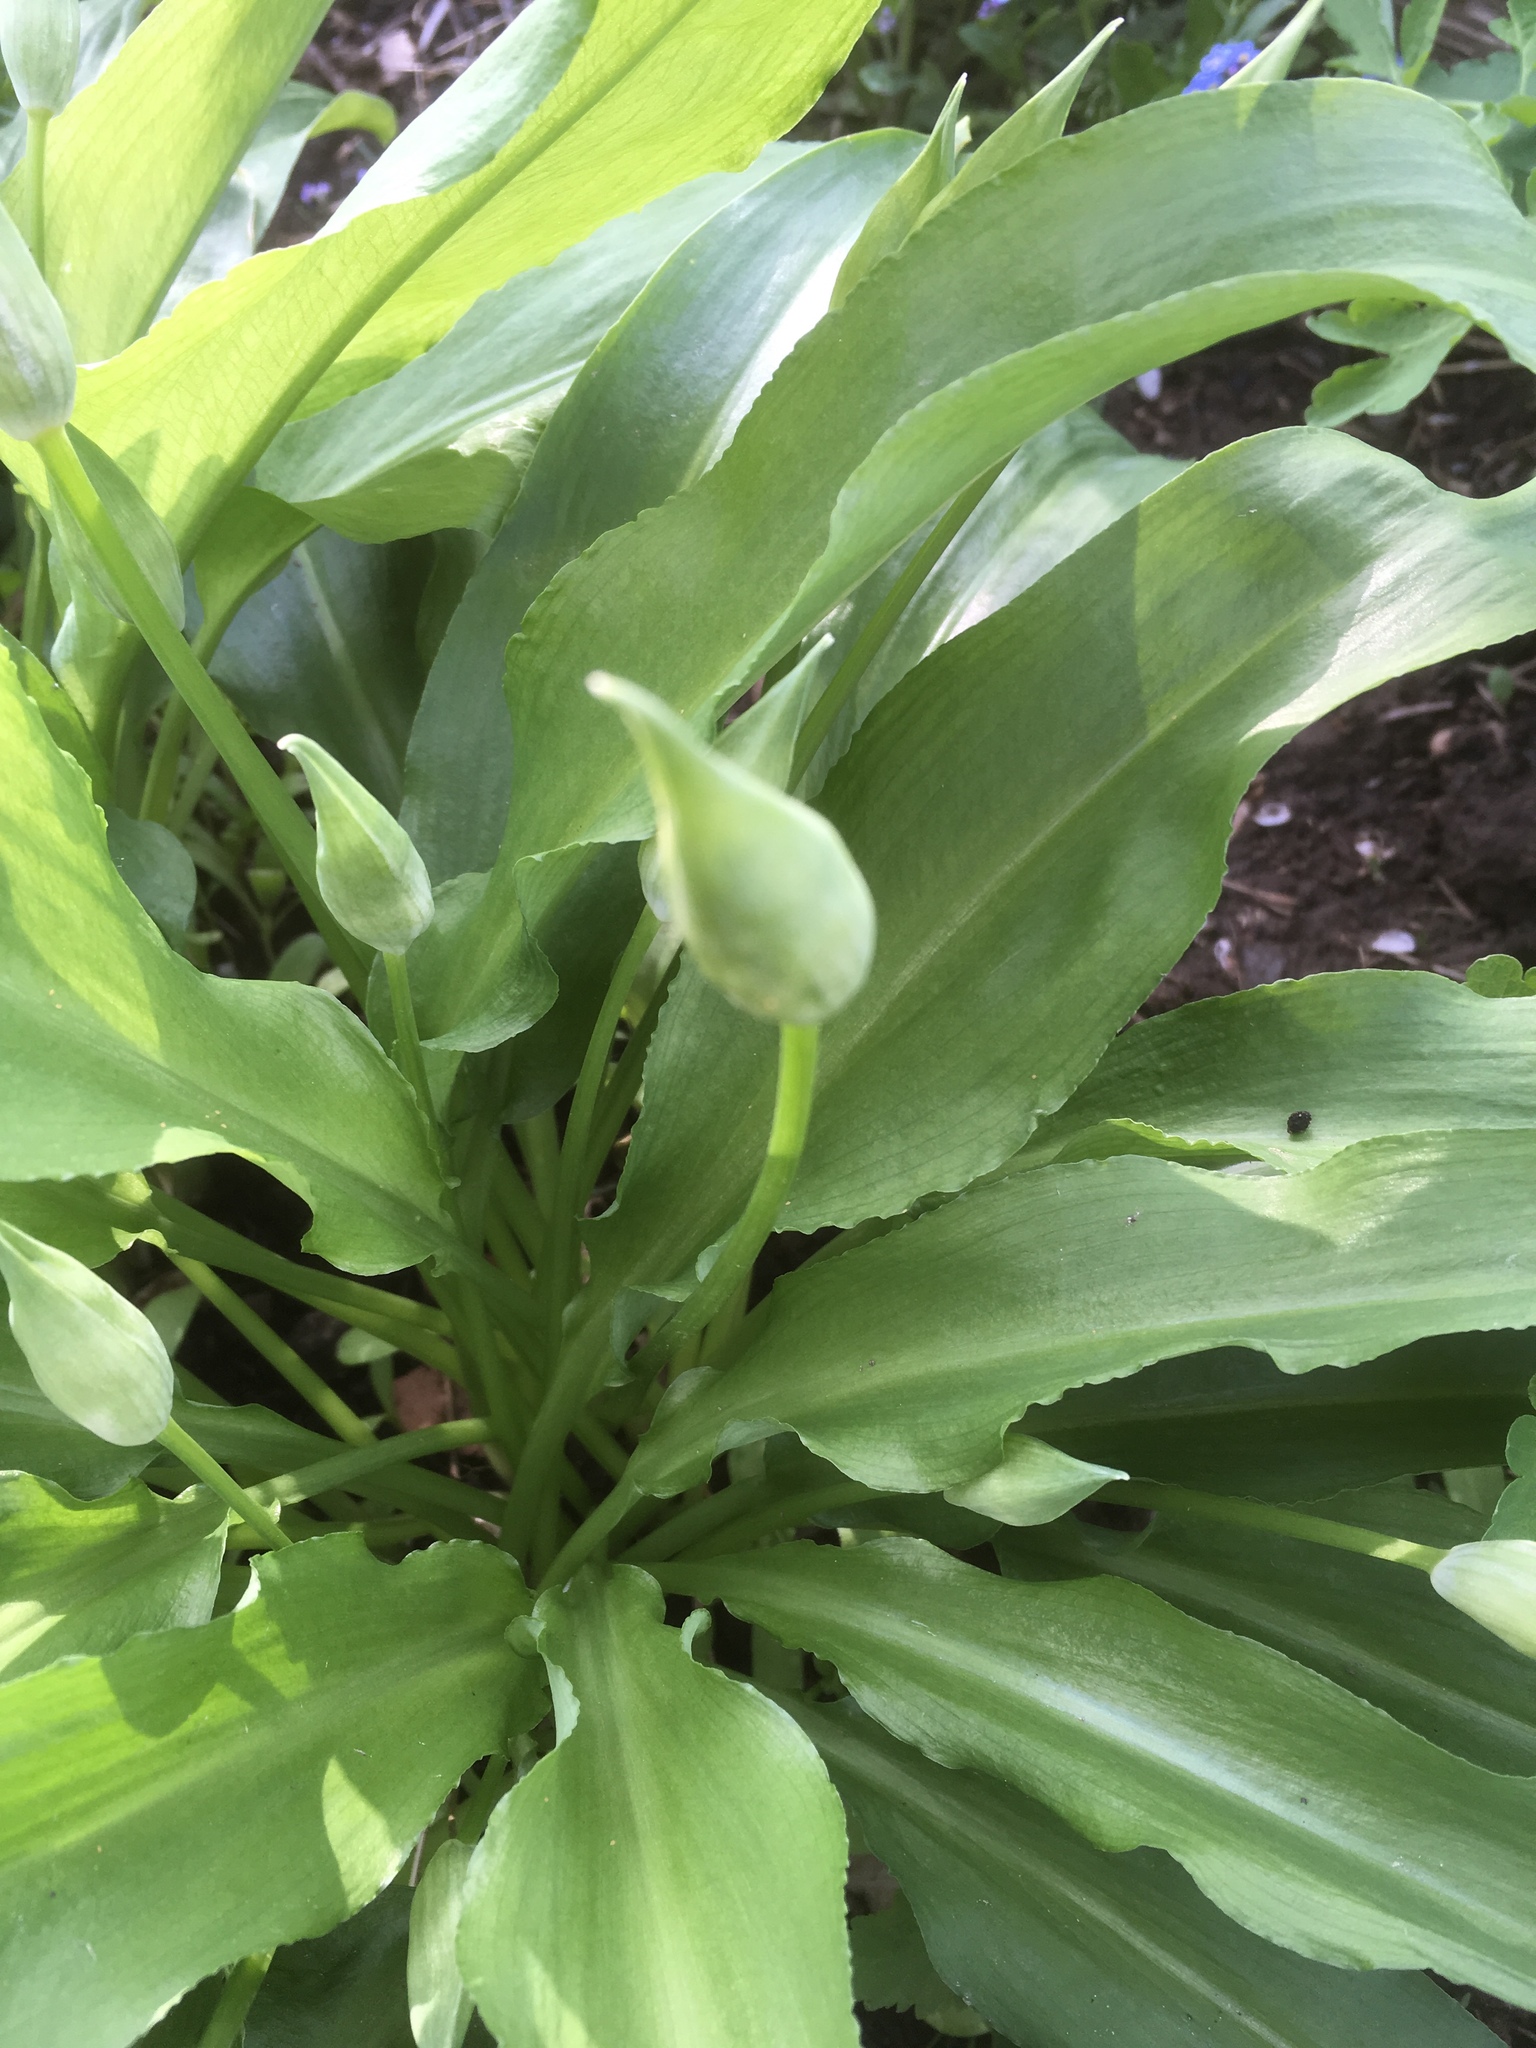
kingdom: Plantae
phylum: Tracheophyta
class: Liliopsida
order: Asparagales
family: Amaryllidaceae
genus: Allium
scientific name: Allium ursinum
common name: Ramsons
